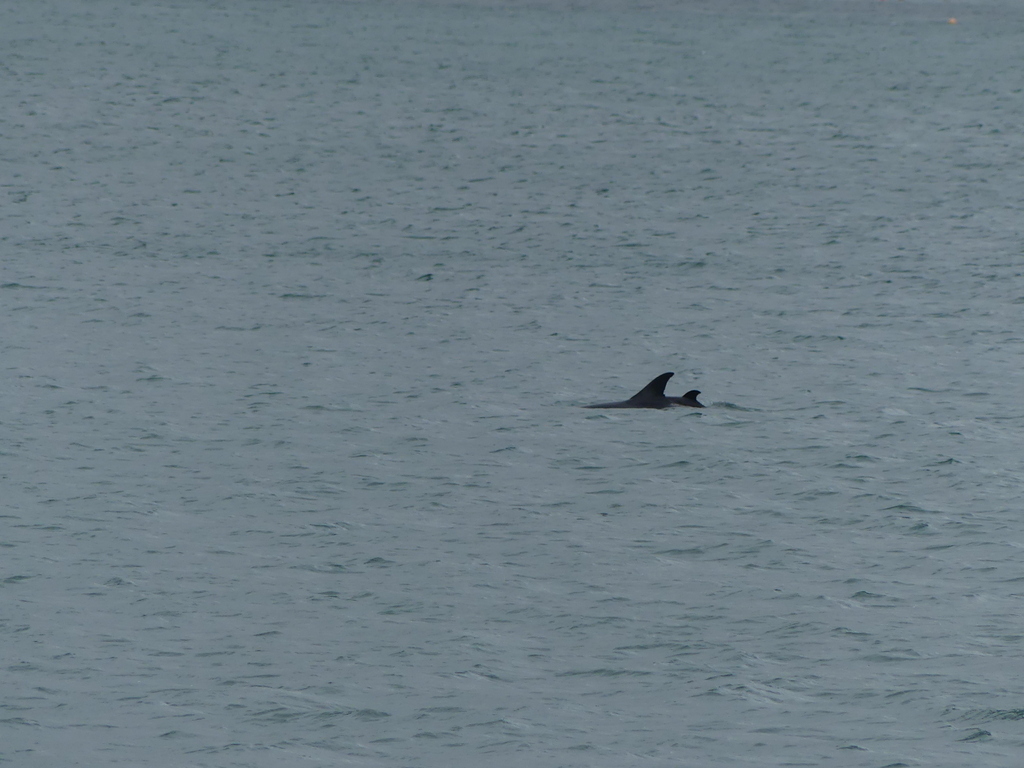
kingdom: Animalia
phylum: Chordata
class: Mammalia
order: Cetacea
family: Delphinidae
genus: Delphinus
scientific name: Delphinus delphis
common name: Common dolphin
